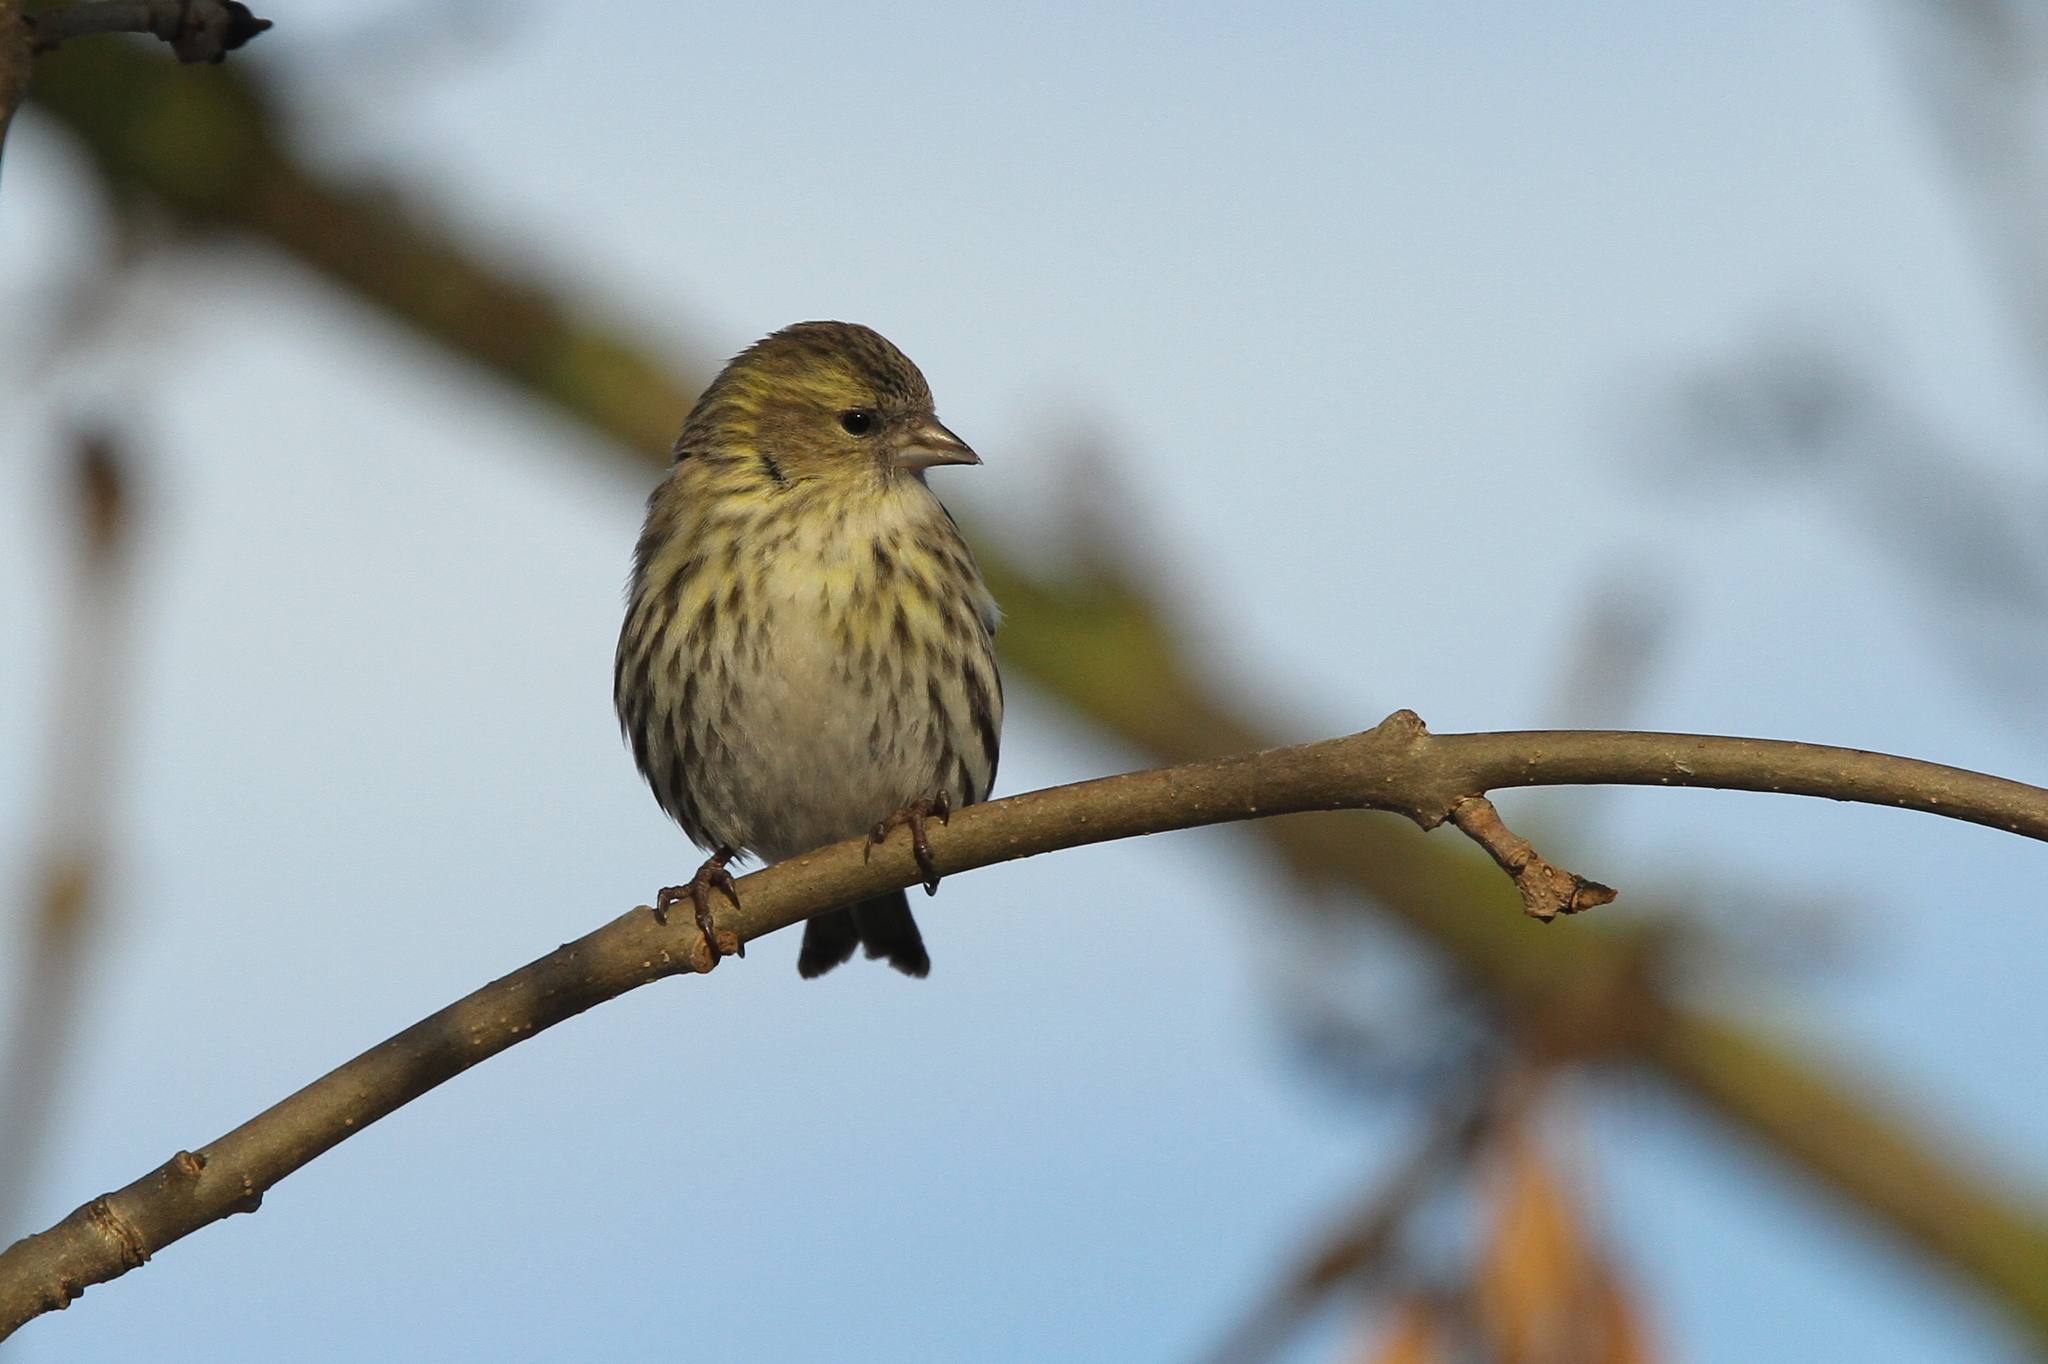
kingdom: Animalia
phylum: Chordata
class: Aves
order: Passeriformes
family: Fringillidae
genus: Spinus
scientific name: Spinus spinus
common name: Eurasian siskin
